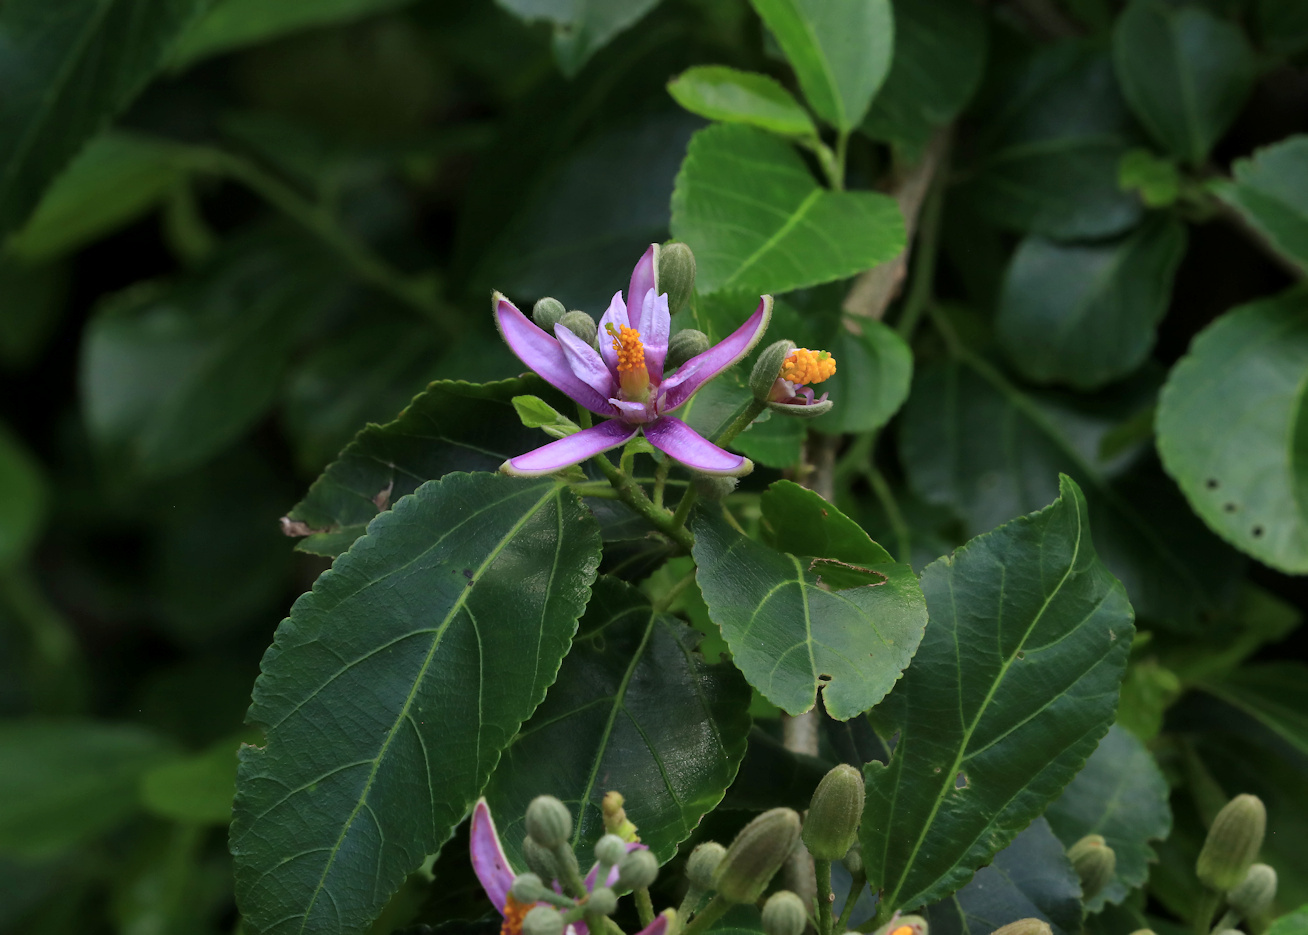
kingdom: Plantae
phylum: Tracheophyta
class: Magnoliopsida
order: Malvales
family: Malvaceae
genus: Grewia
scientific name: Grewia occidentalis
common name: Crossberry
